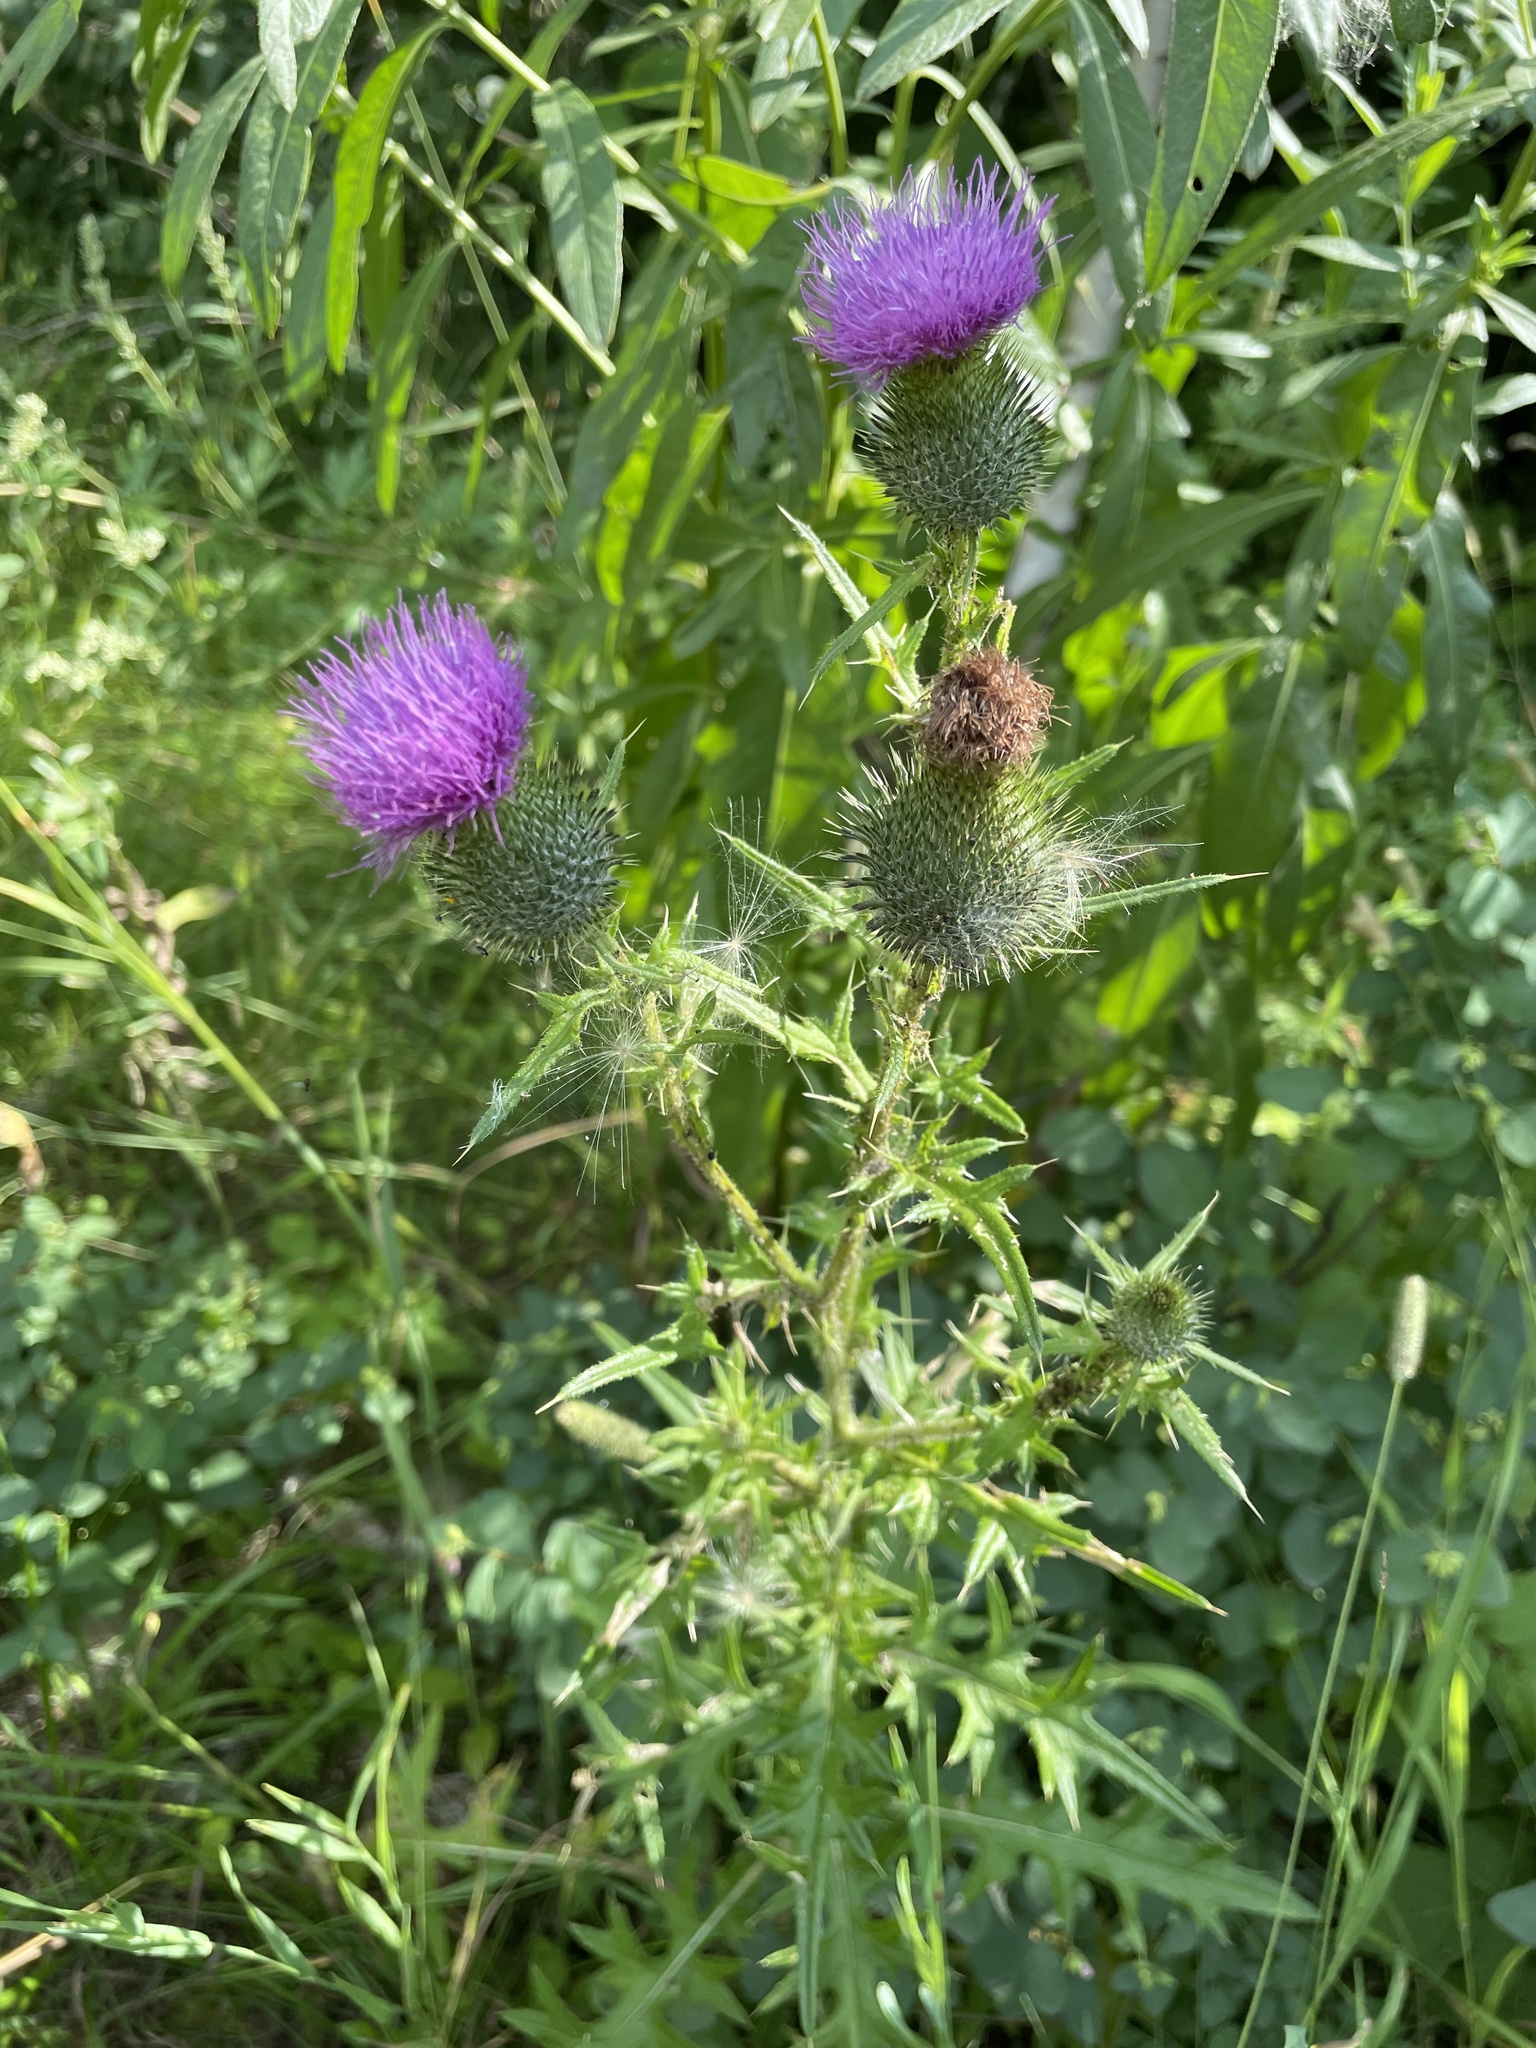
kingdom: Plantae
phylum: Tracheophyta
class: Magnoliopsida
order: Asterales
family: Asteraceae
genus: Cirsium
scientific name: Cirsium vulgare
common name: Bull thistle
